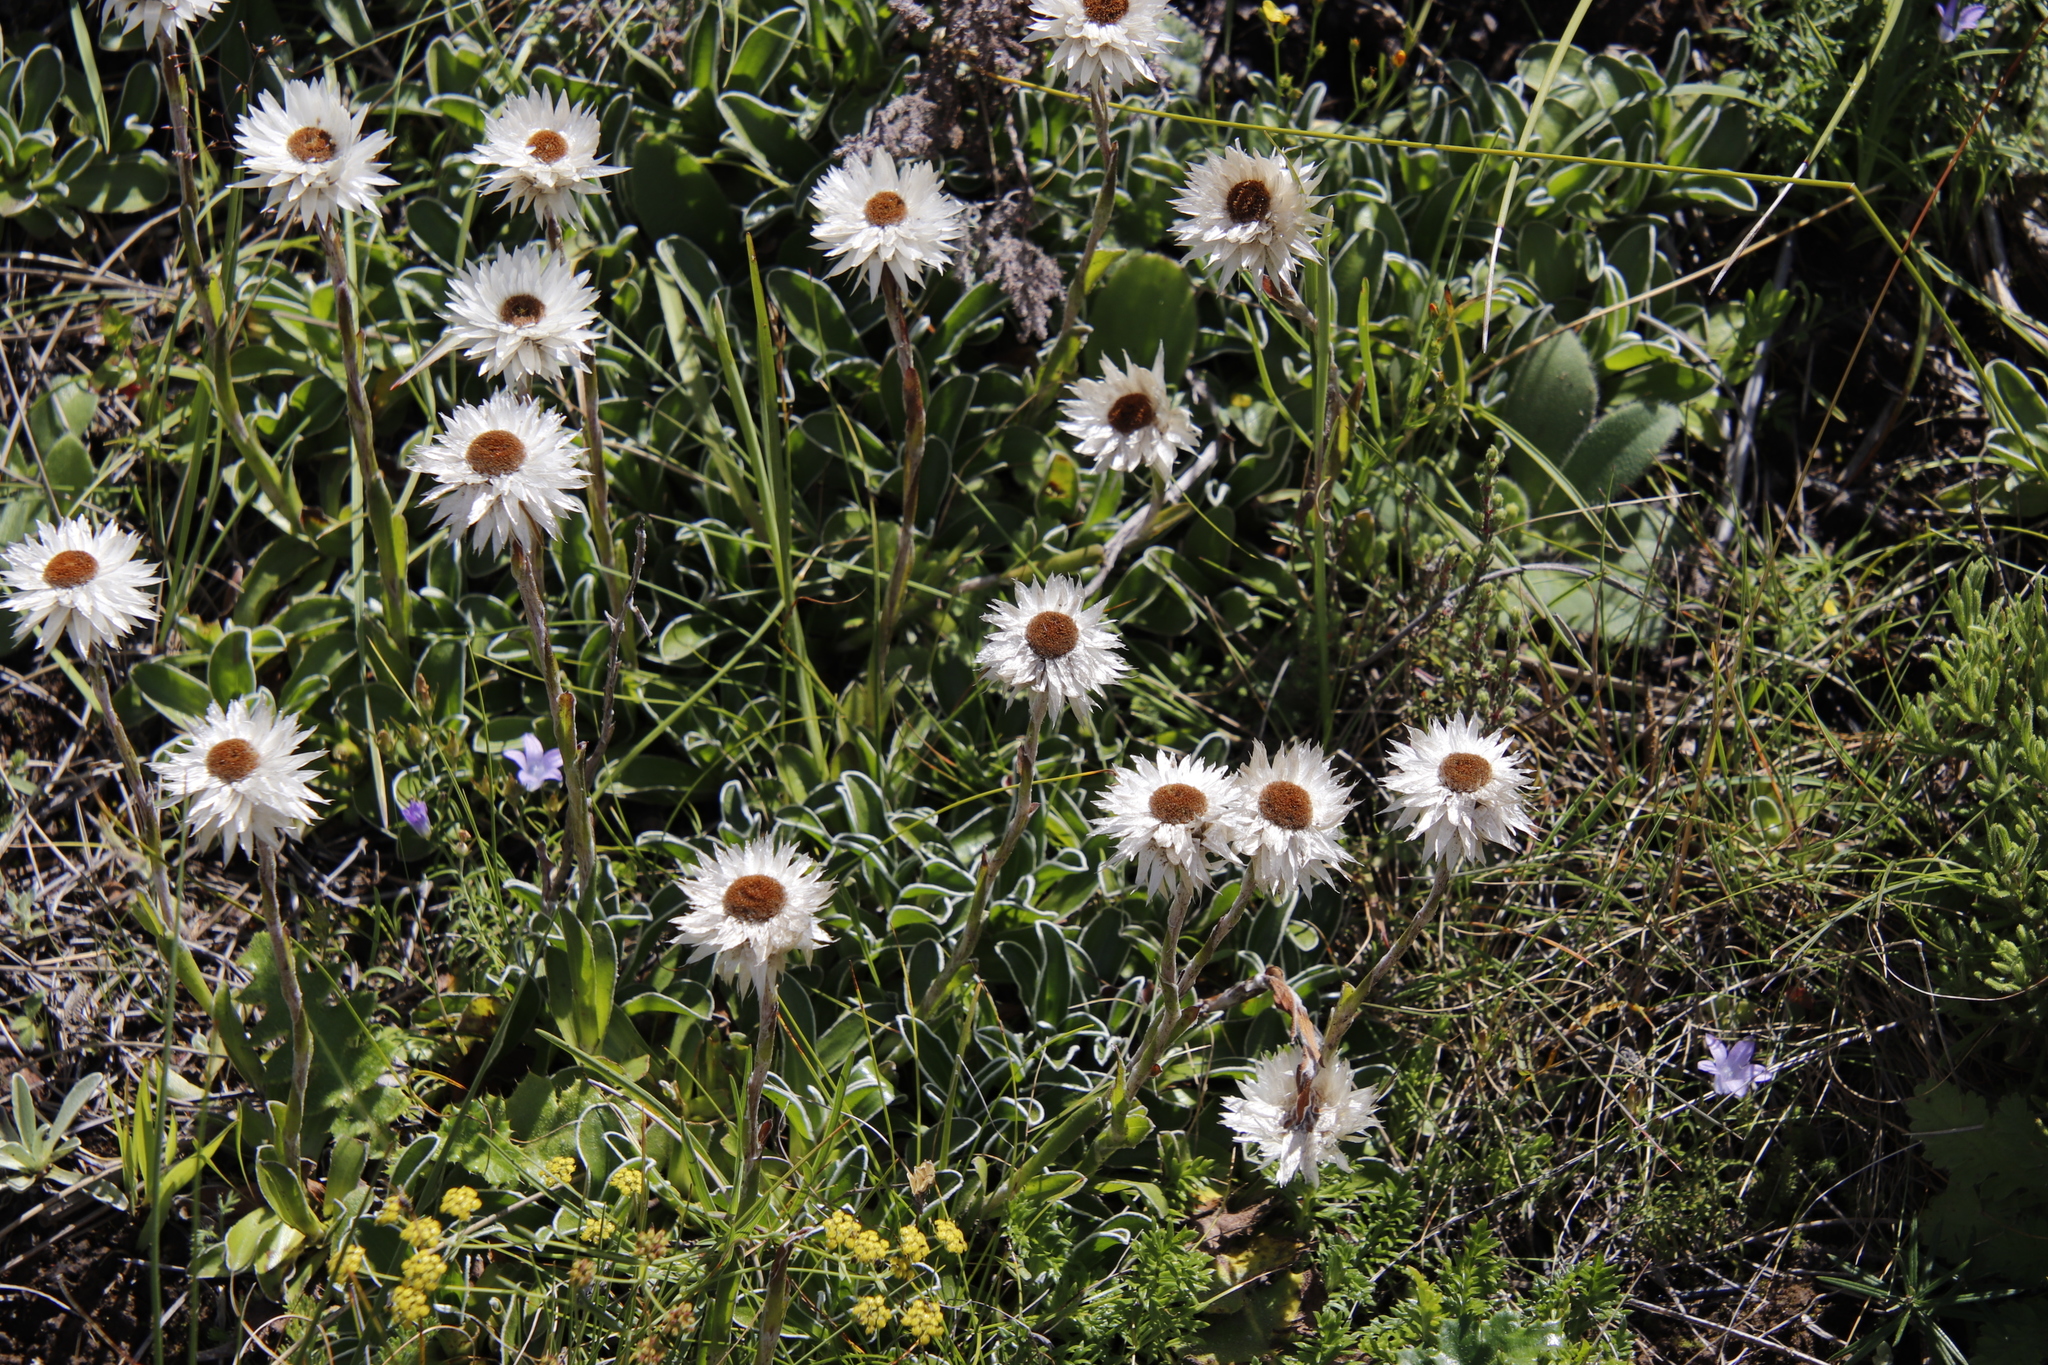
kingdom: Plantae
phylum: Tracheophyta
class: Magnoliopsida
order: Asterales
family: Asteraceae
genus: Helichrysum
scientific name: Helichrysum marginatum
